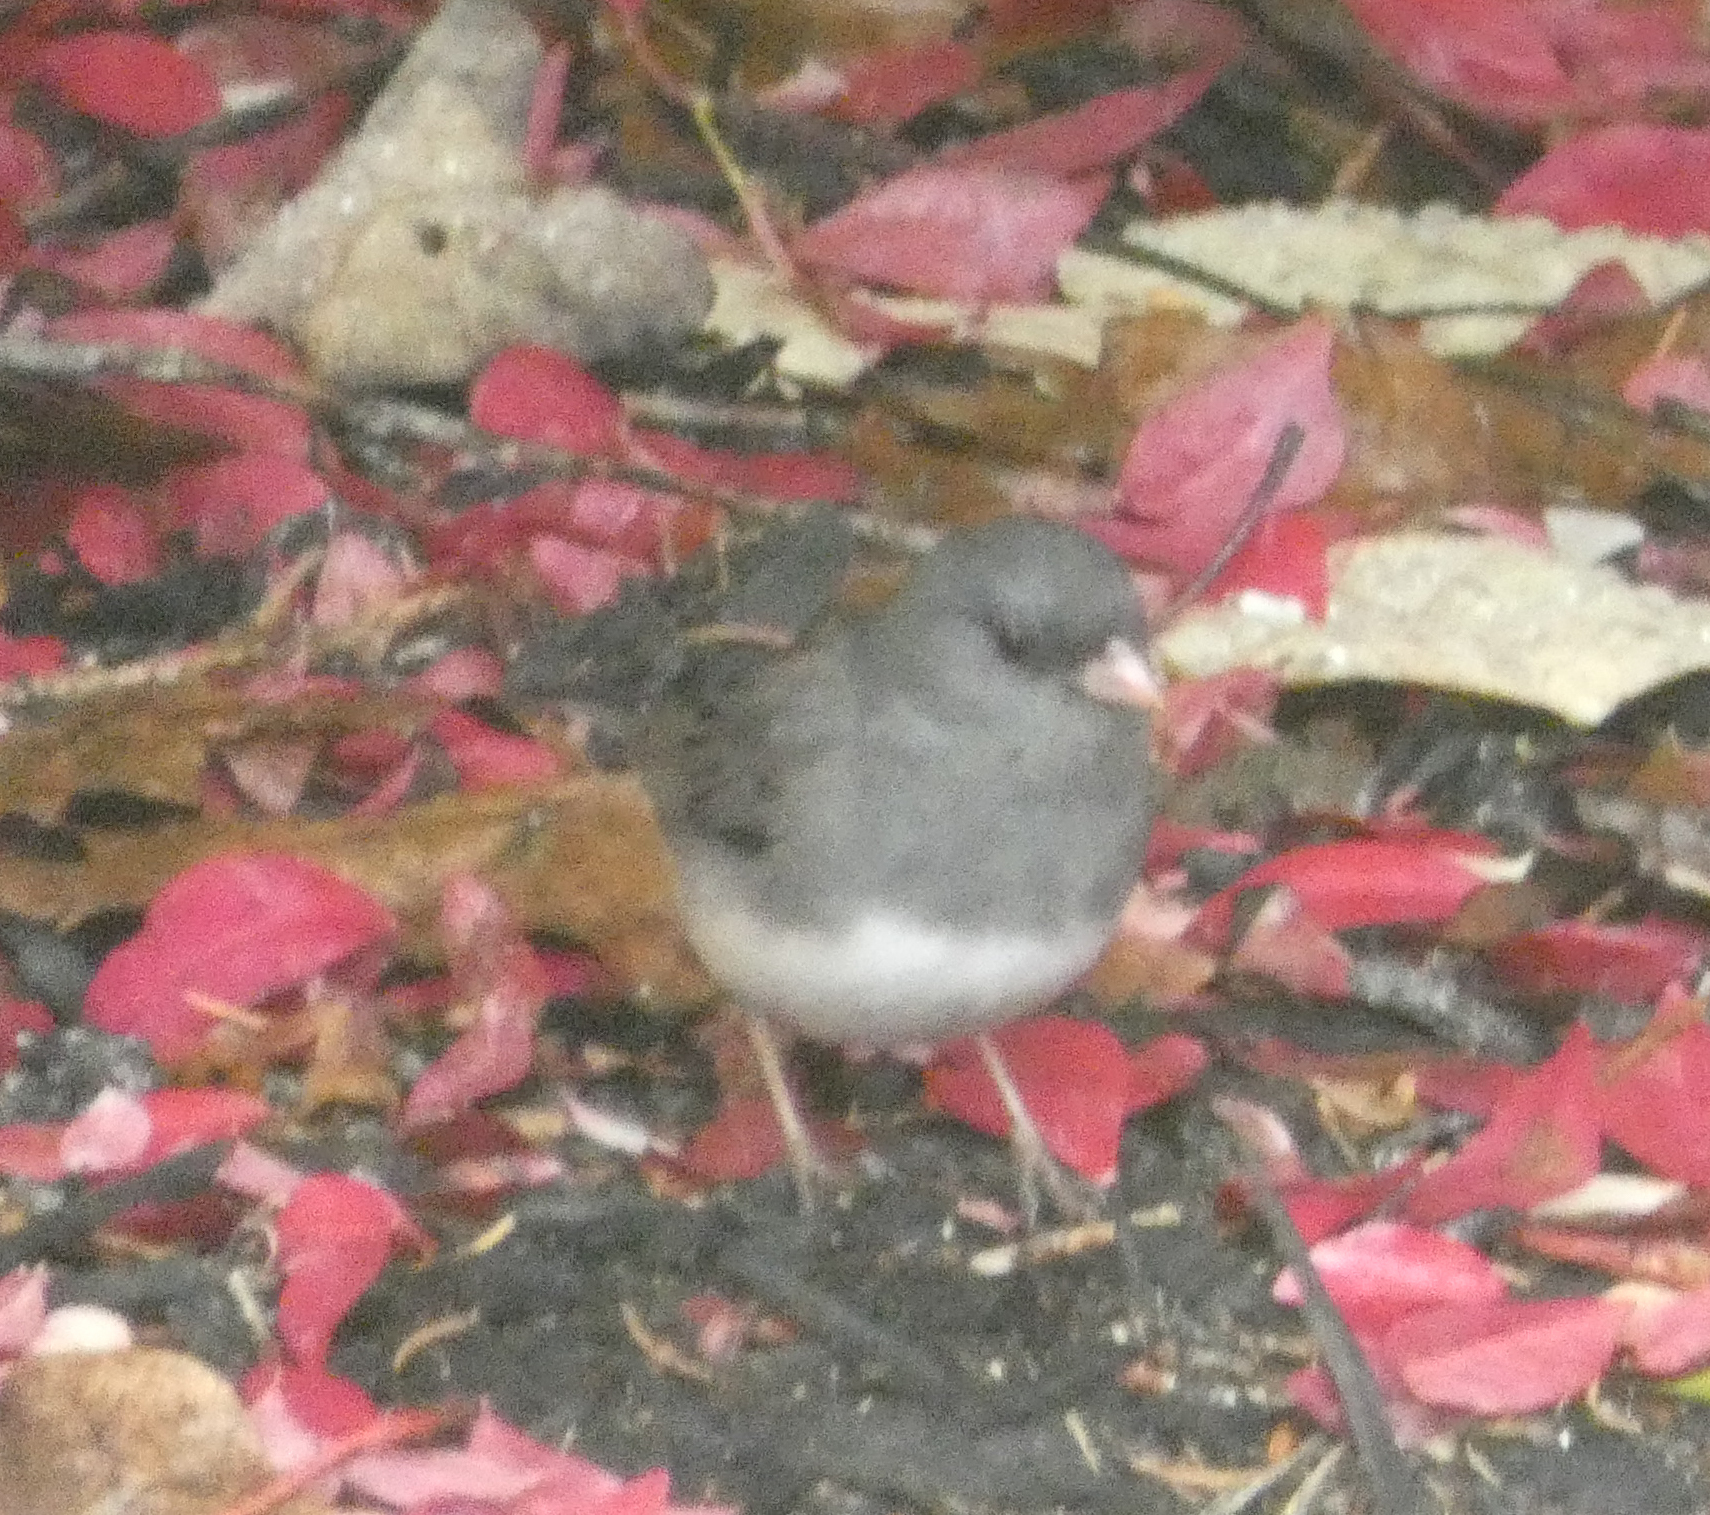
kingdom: Animalia
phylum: Chordata
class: Aves
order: Passeriformes
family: Passerellidae
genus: Junco
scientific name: Junco hyemalis
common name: Dark-eyed junco
